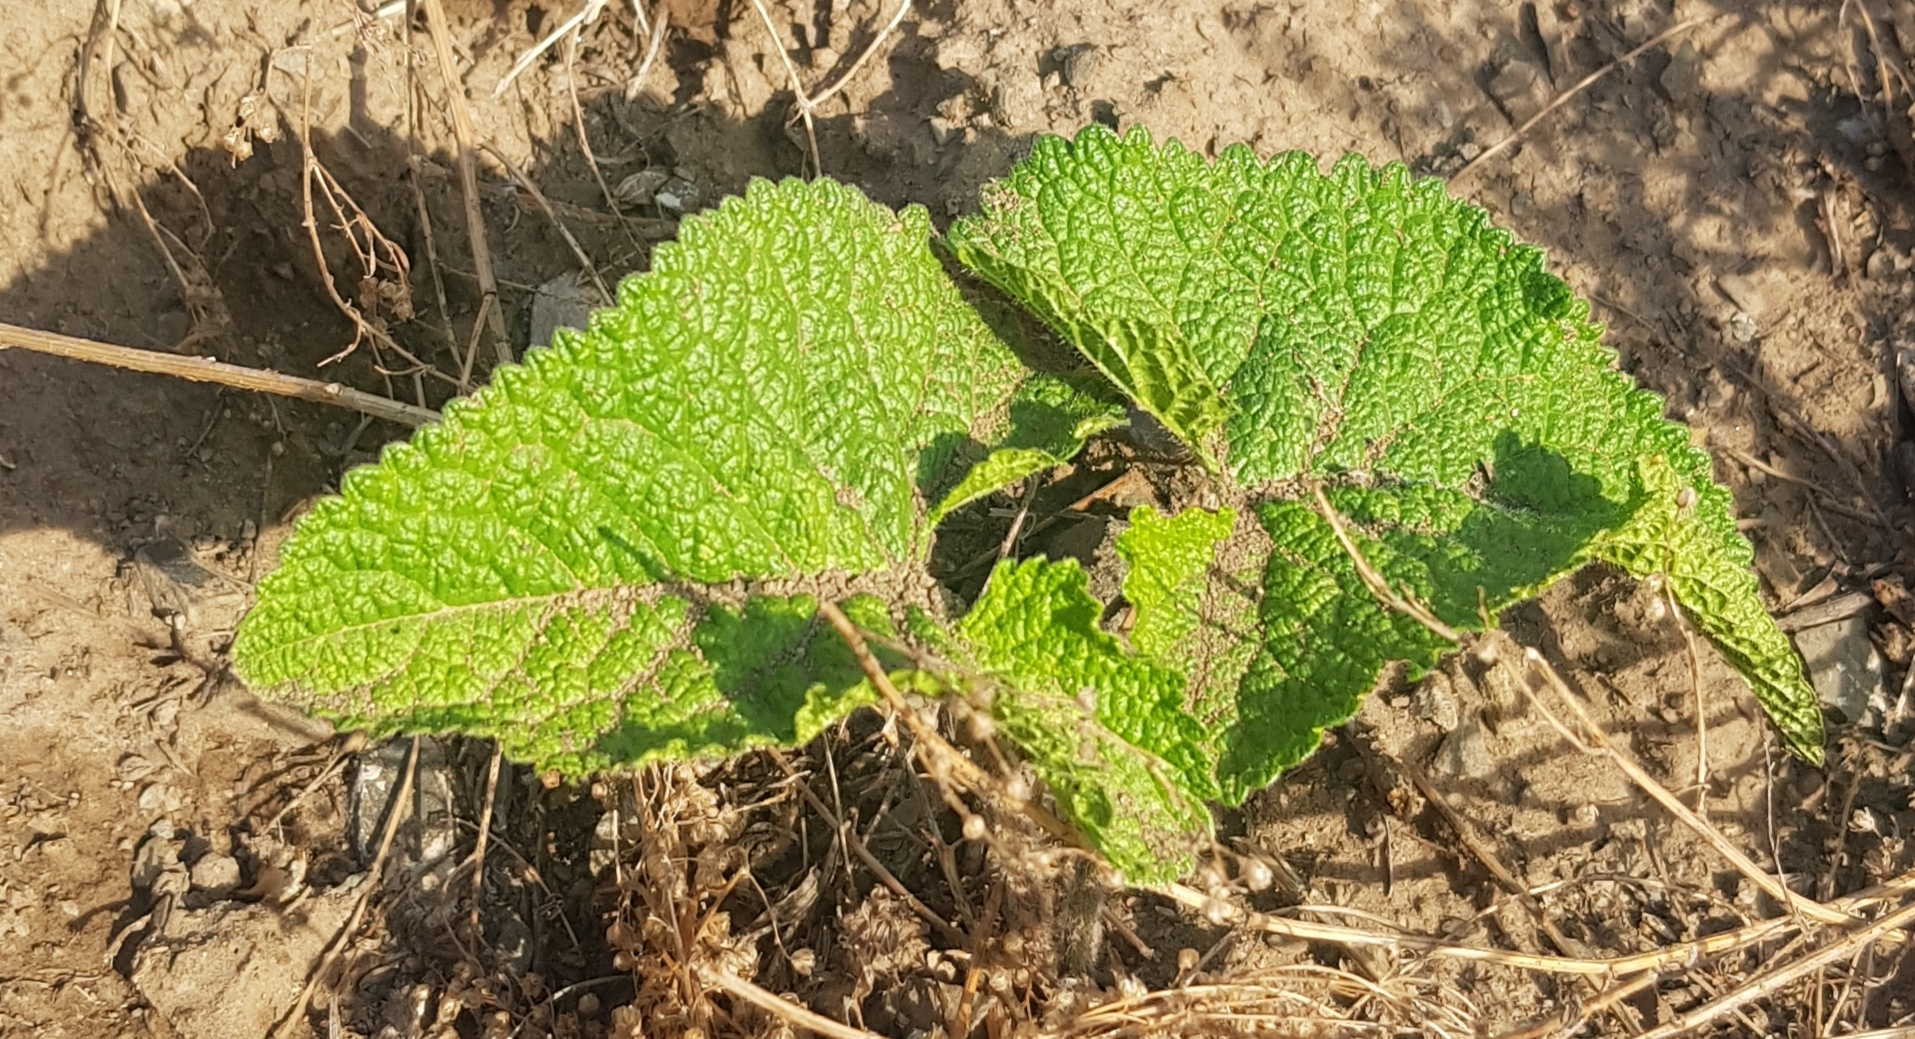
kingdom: Plantae
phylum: Tracheophyta
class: Magnoliopsida
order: Lamiales
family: Lamiaceae
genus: Phlomoides
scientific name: Phlomoides tuberosa
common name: Tuberous jerusalem sage
